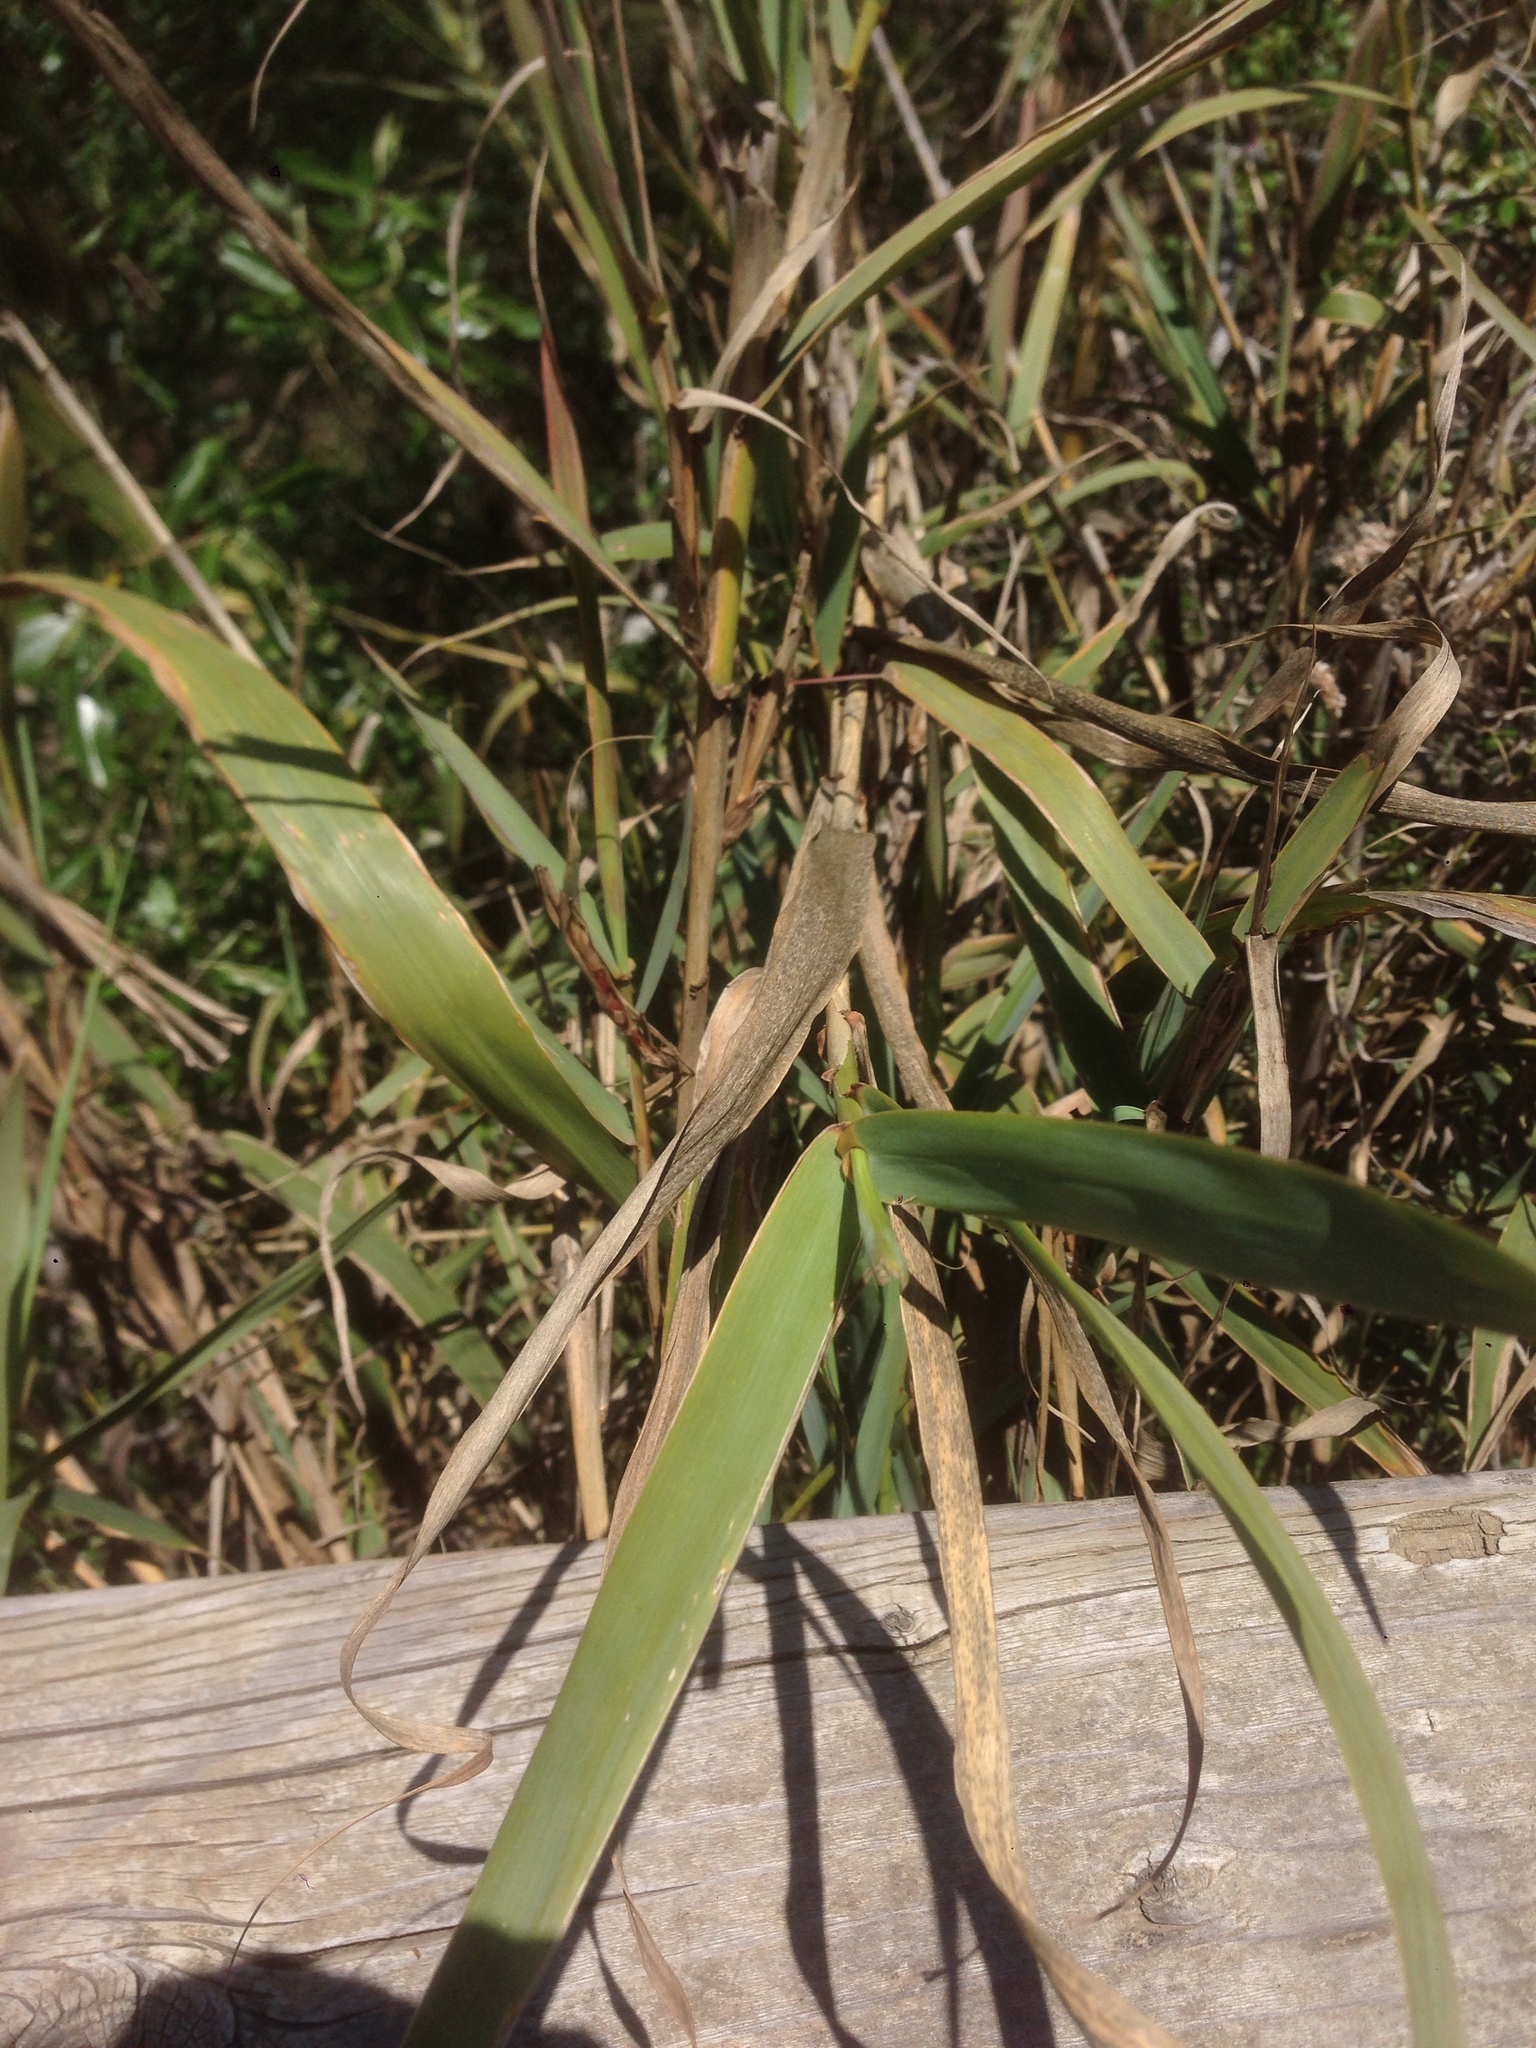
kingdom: Plantae
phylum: Tracheophyta
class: Liliopsida
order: Poales
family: Poaceae
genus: Arundo
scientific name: Arundo donax
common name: Giant reed
